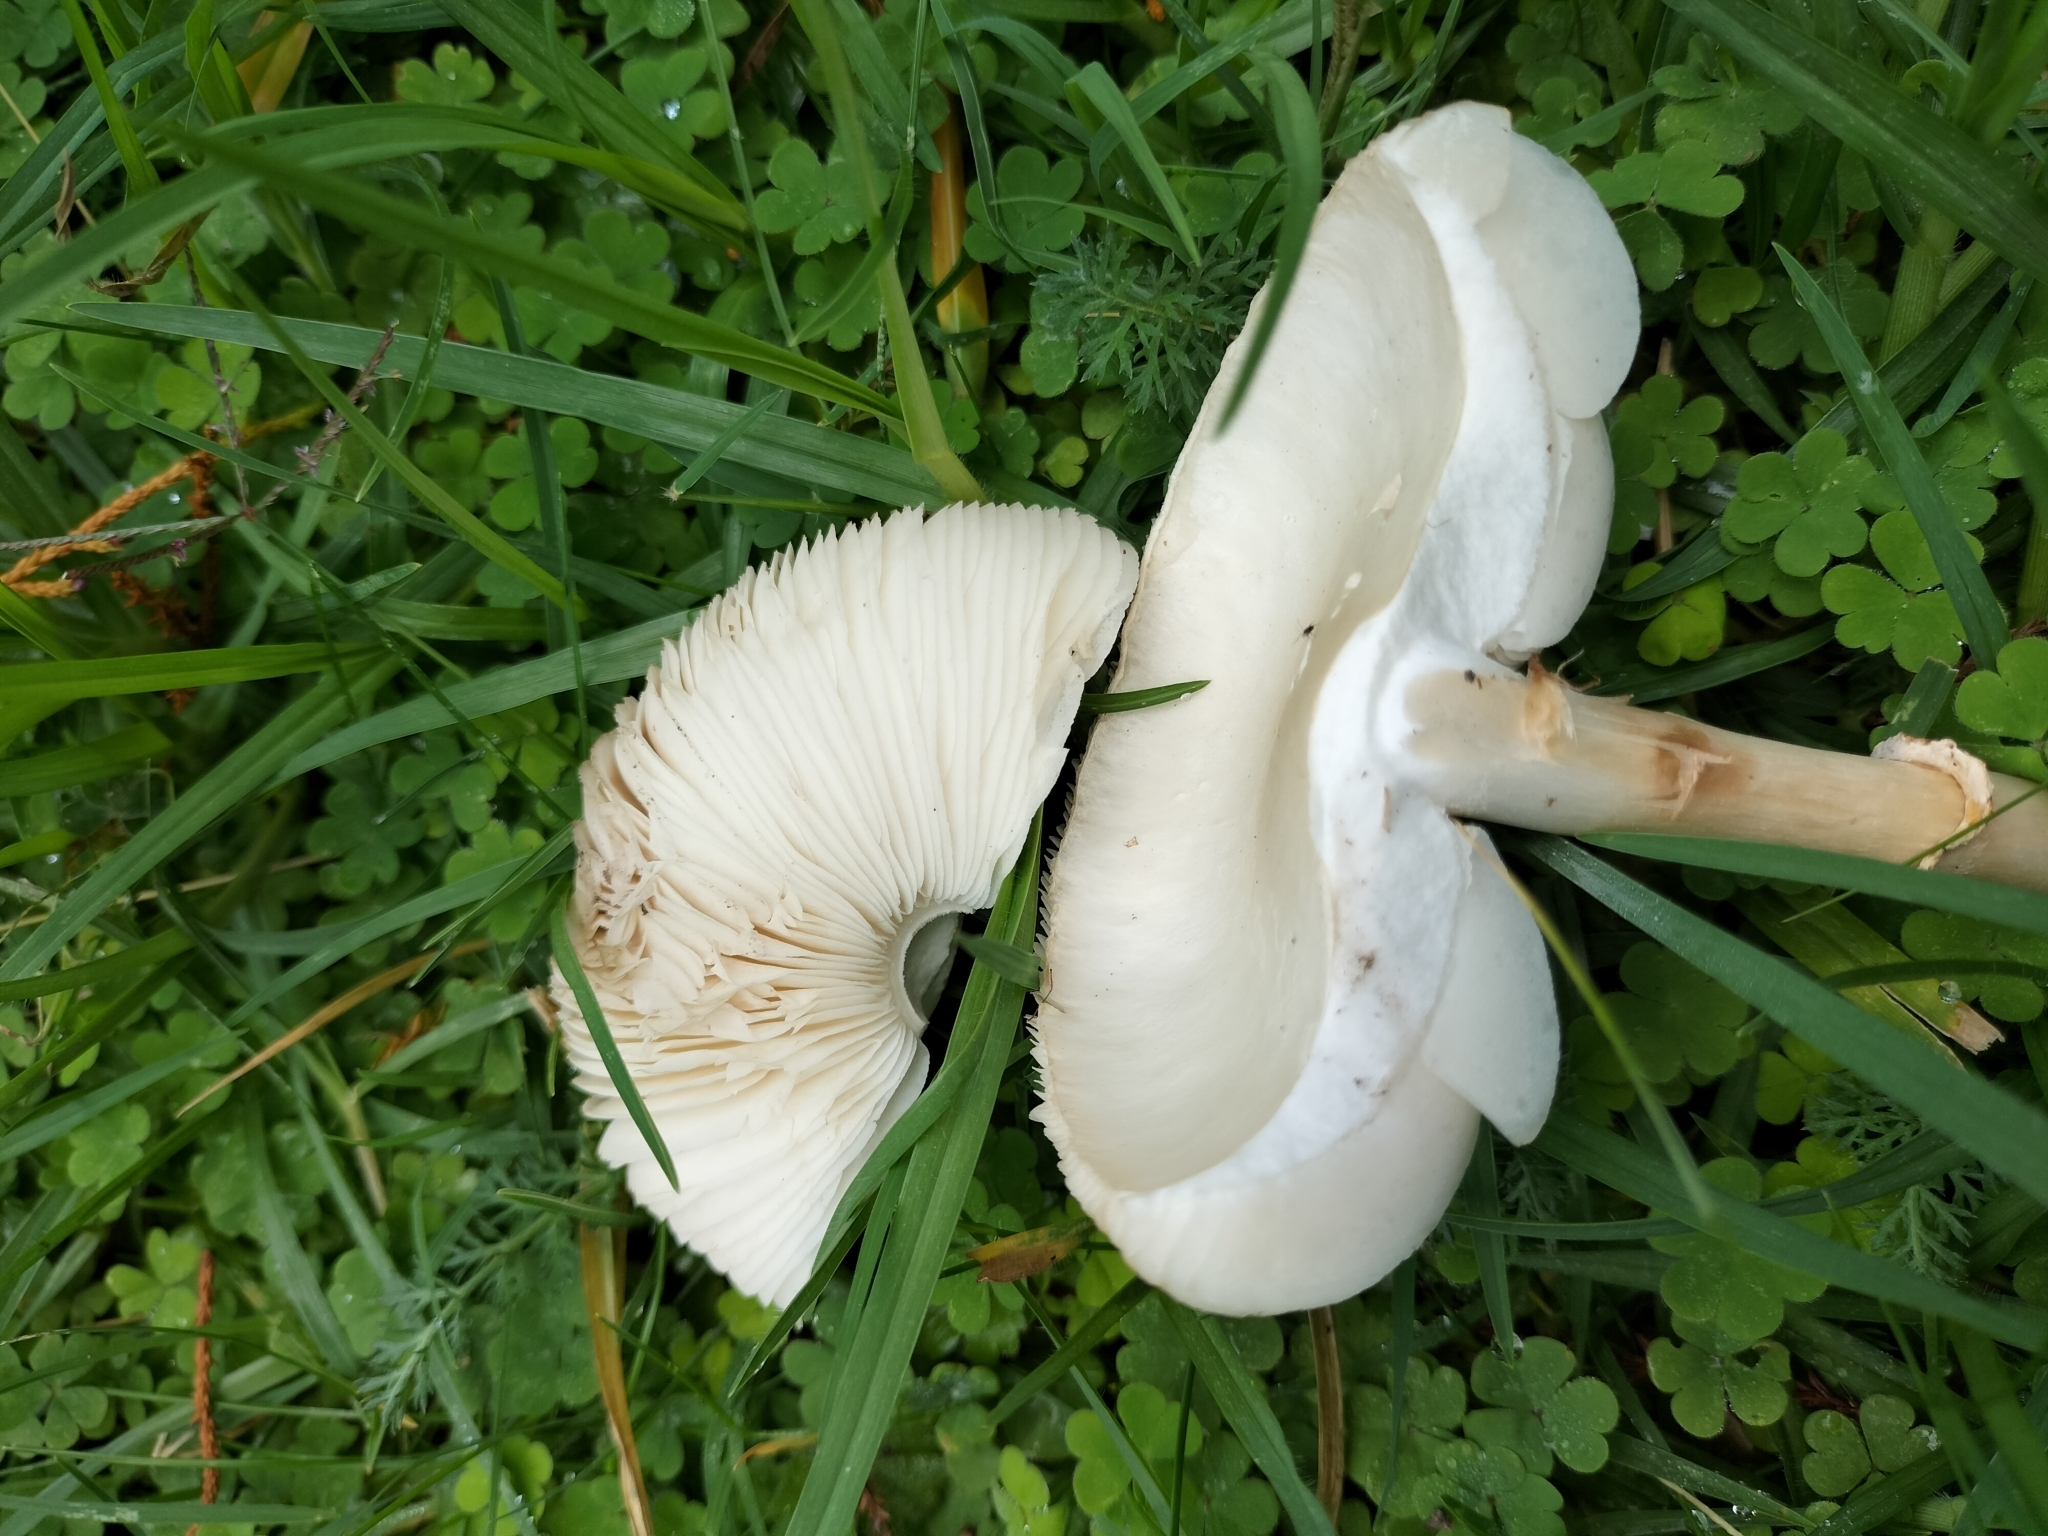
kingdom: Fungi
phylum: Basidiomycota
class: Agaricomycetes
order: Agaricales
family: Agaricaceae
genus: Leucoagaricus
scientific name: Leucoagaricus leucothites
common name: White dapperling
